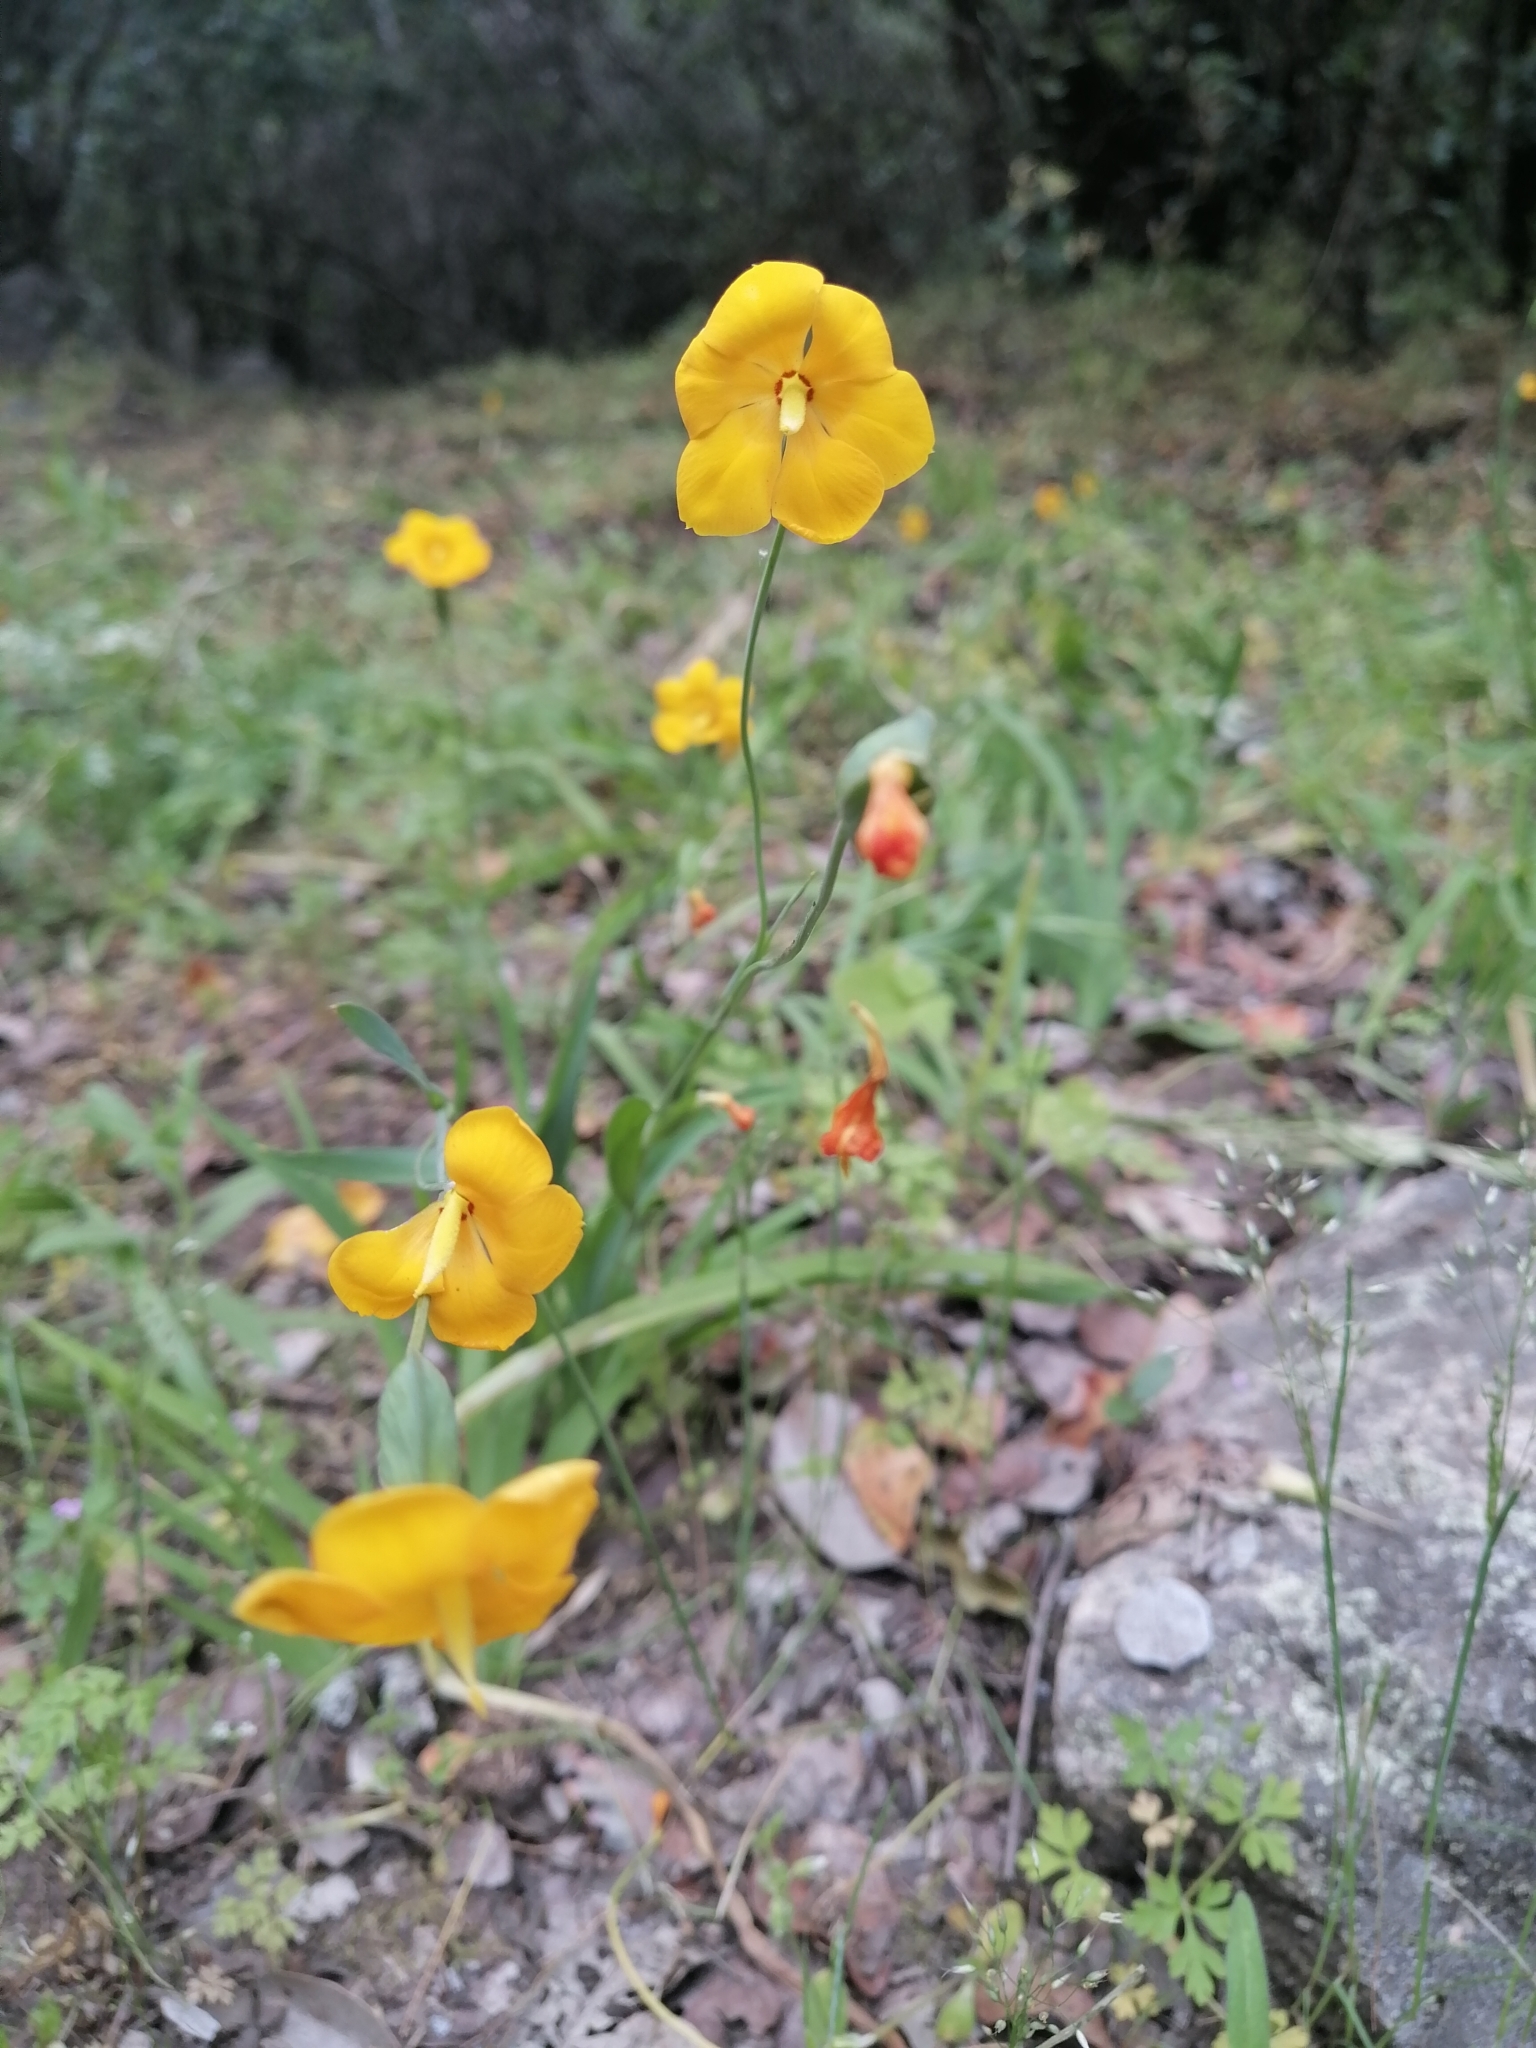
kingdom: Plantae
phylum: Tracheophyta
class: Liliopsida
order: Asparagales
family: Iridaceae
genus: Solenomelus
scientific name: Solenomelus pedunculatus
